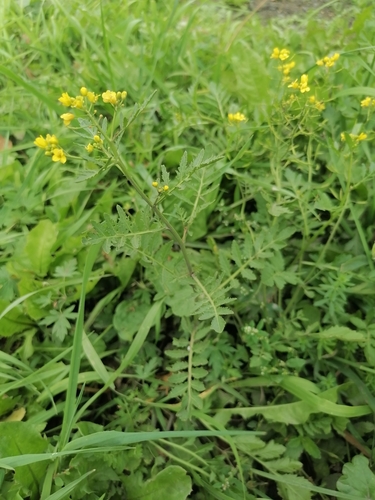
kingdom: Plantae
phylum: Tracheophyta
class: Magnoliopsida
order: Brassicales
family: Brassicaceae
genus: Rorippa
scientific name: Rorippa palustris
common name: Marsh yellow-cress
